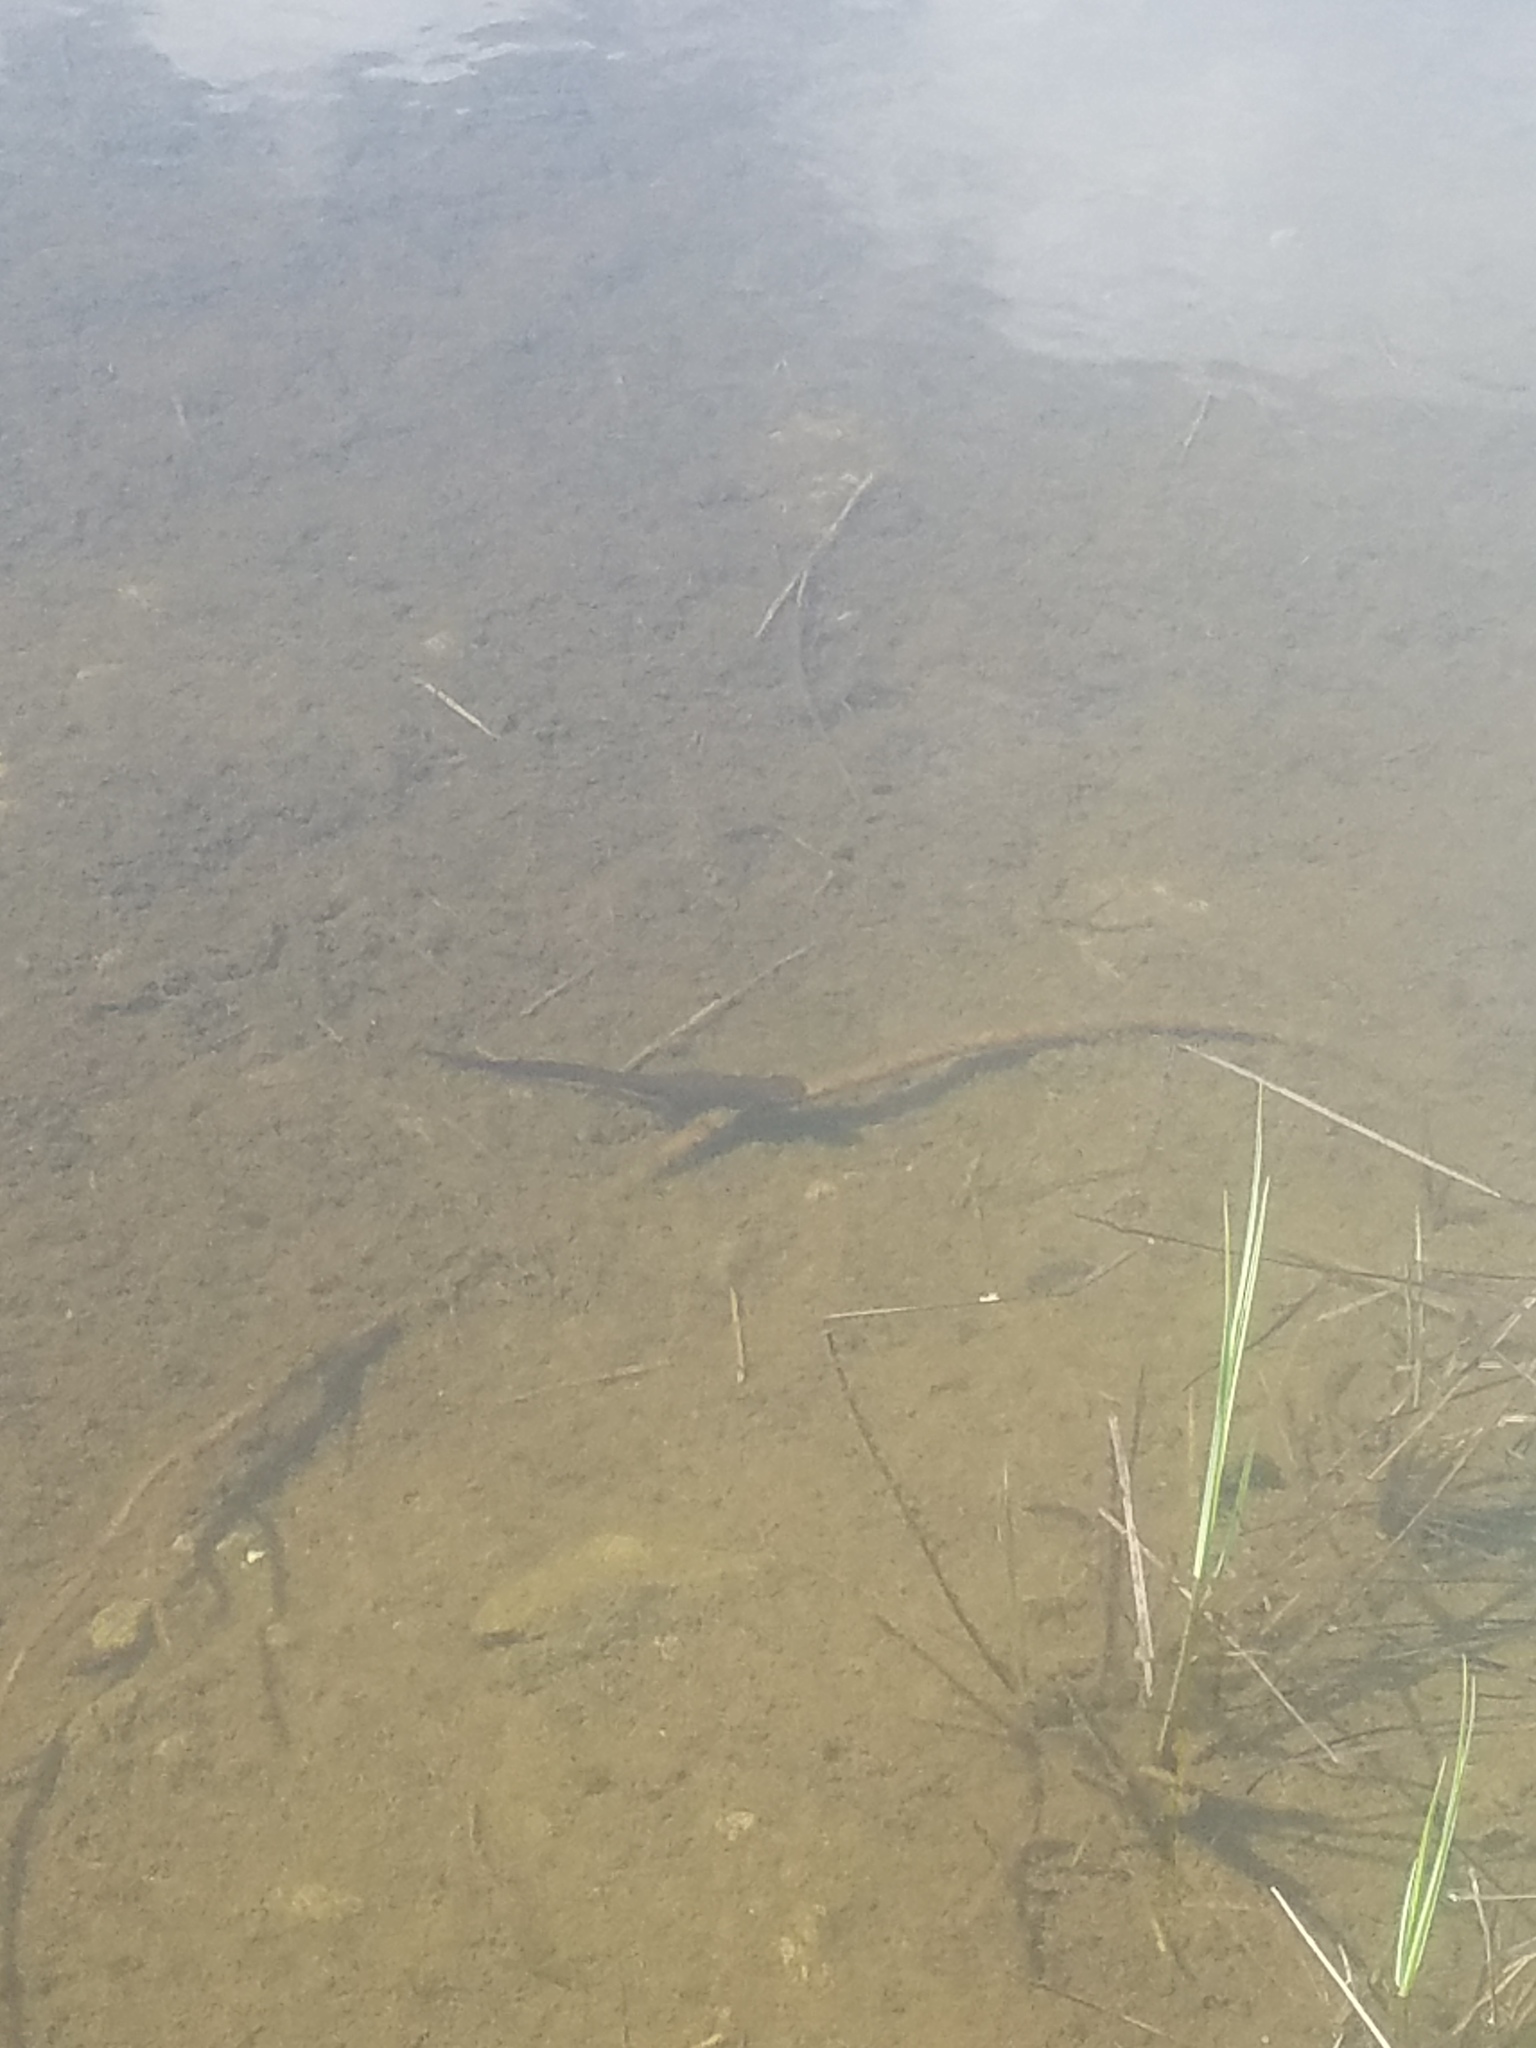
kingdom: Animalia
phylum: Chordata
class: Amphibia
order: Caudata
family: Salamandridae
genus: Taricha
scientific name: Taricha granulosa
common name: Roughskin newt
